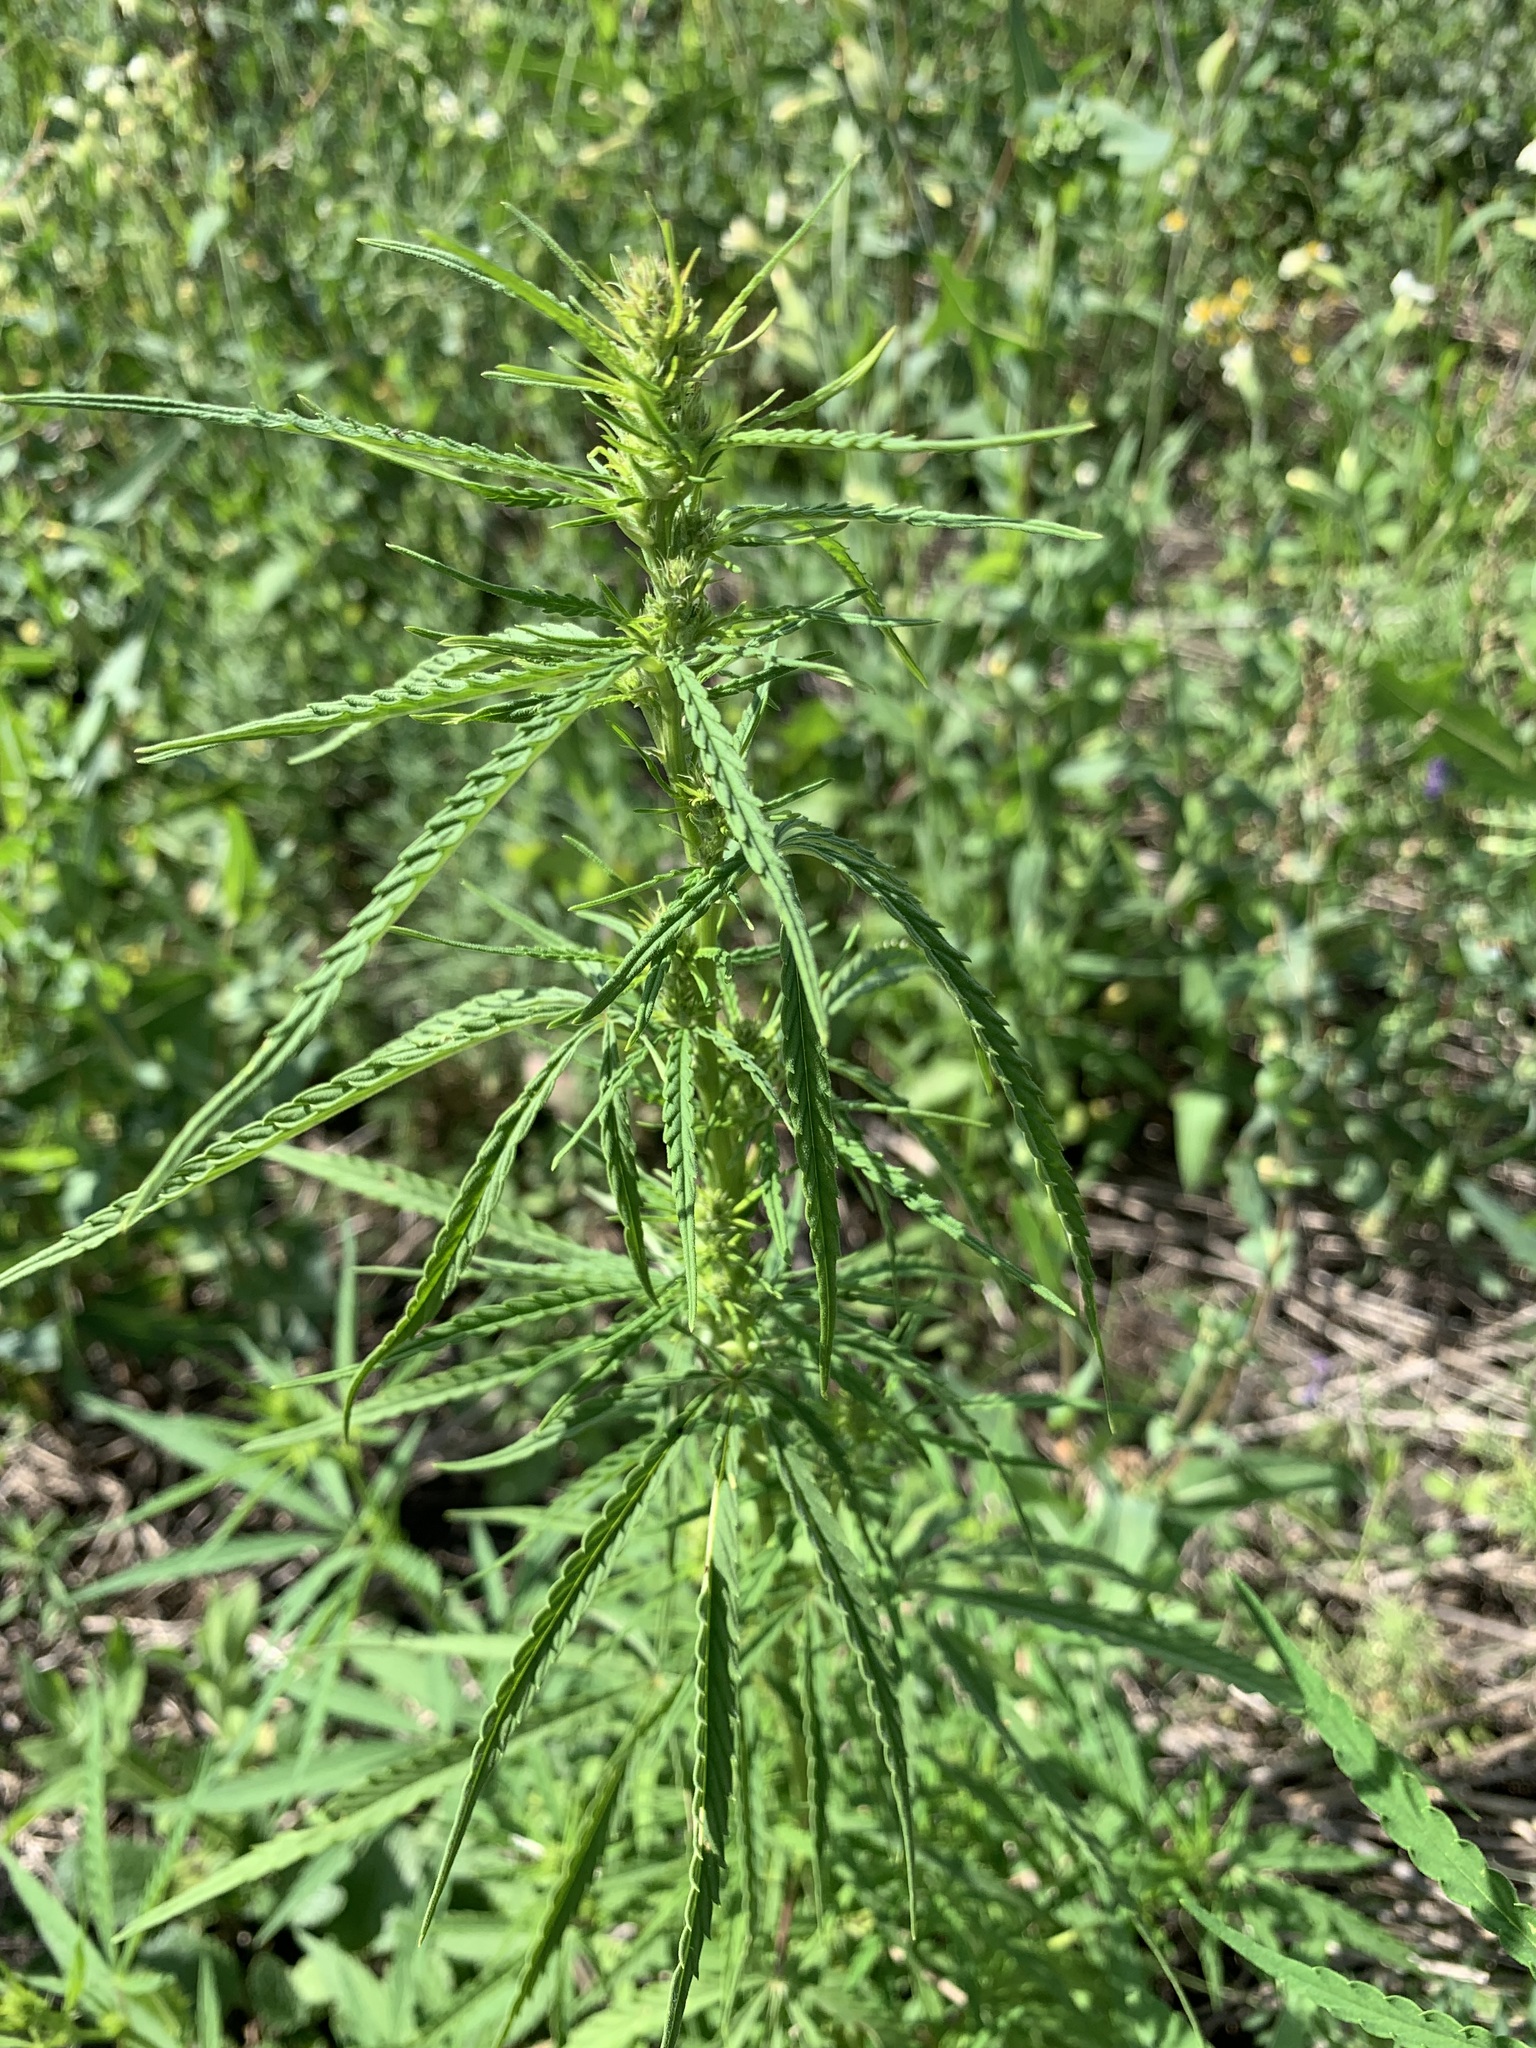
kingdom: Plantae
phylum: Tracheophyta
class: Magnoliopsida
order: Rosales
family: Cannabaceae
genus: Cannabis
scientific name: Cannabis sativa
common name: Hemp
